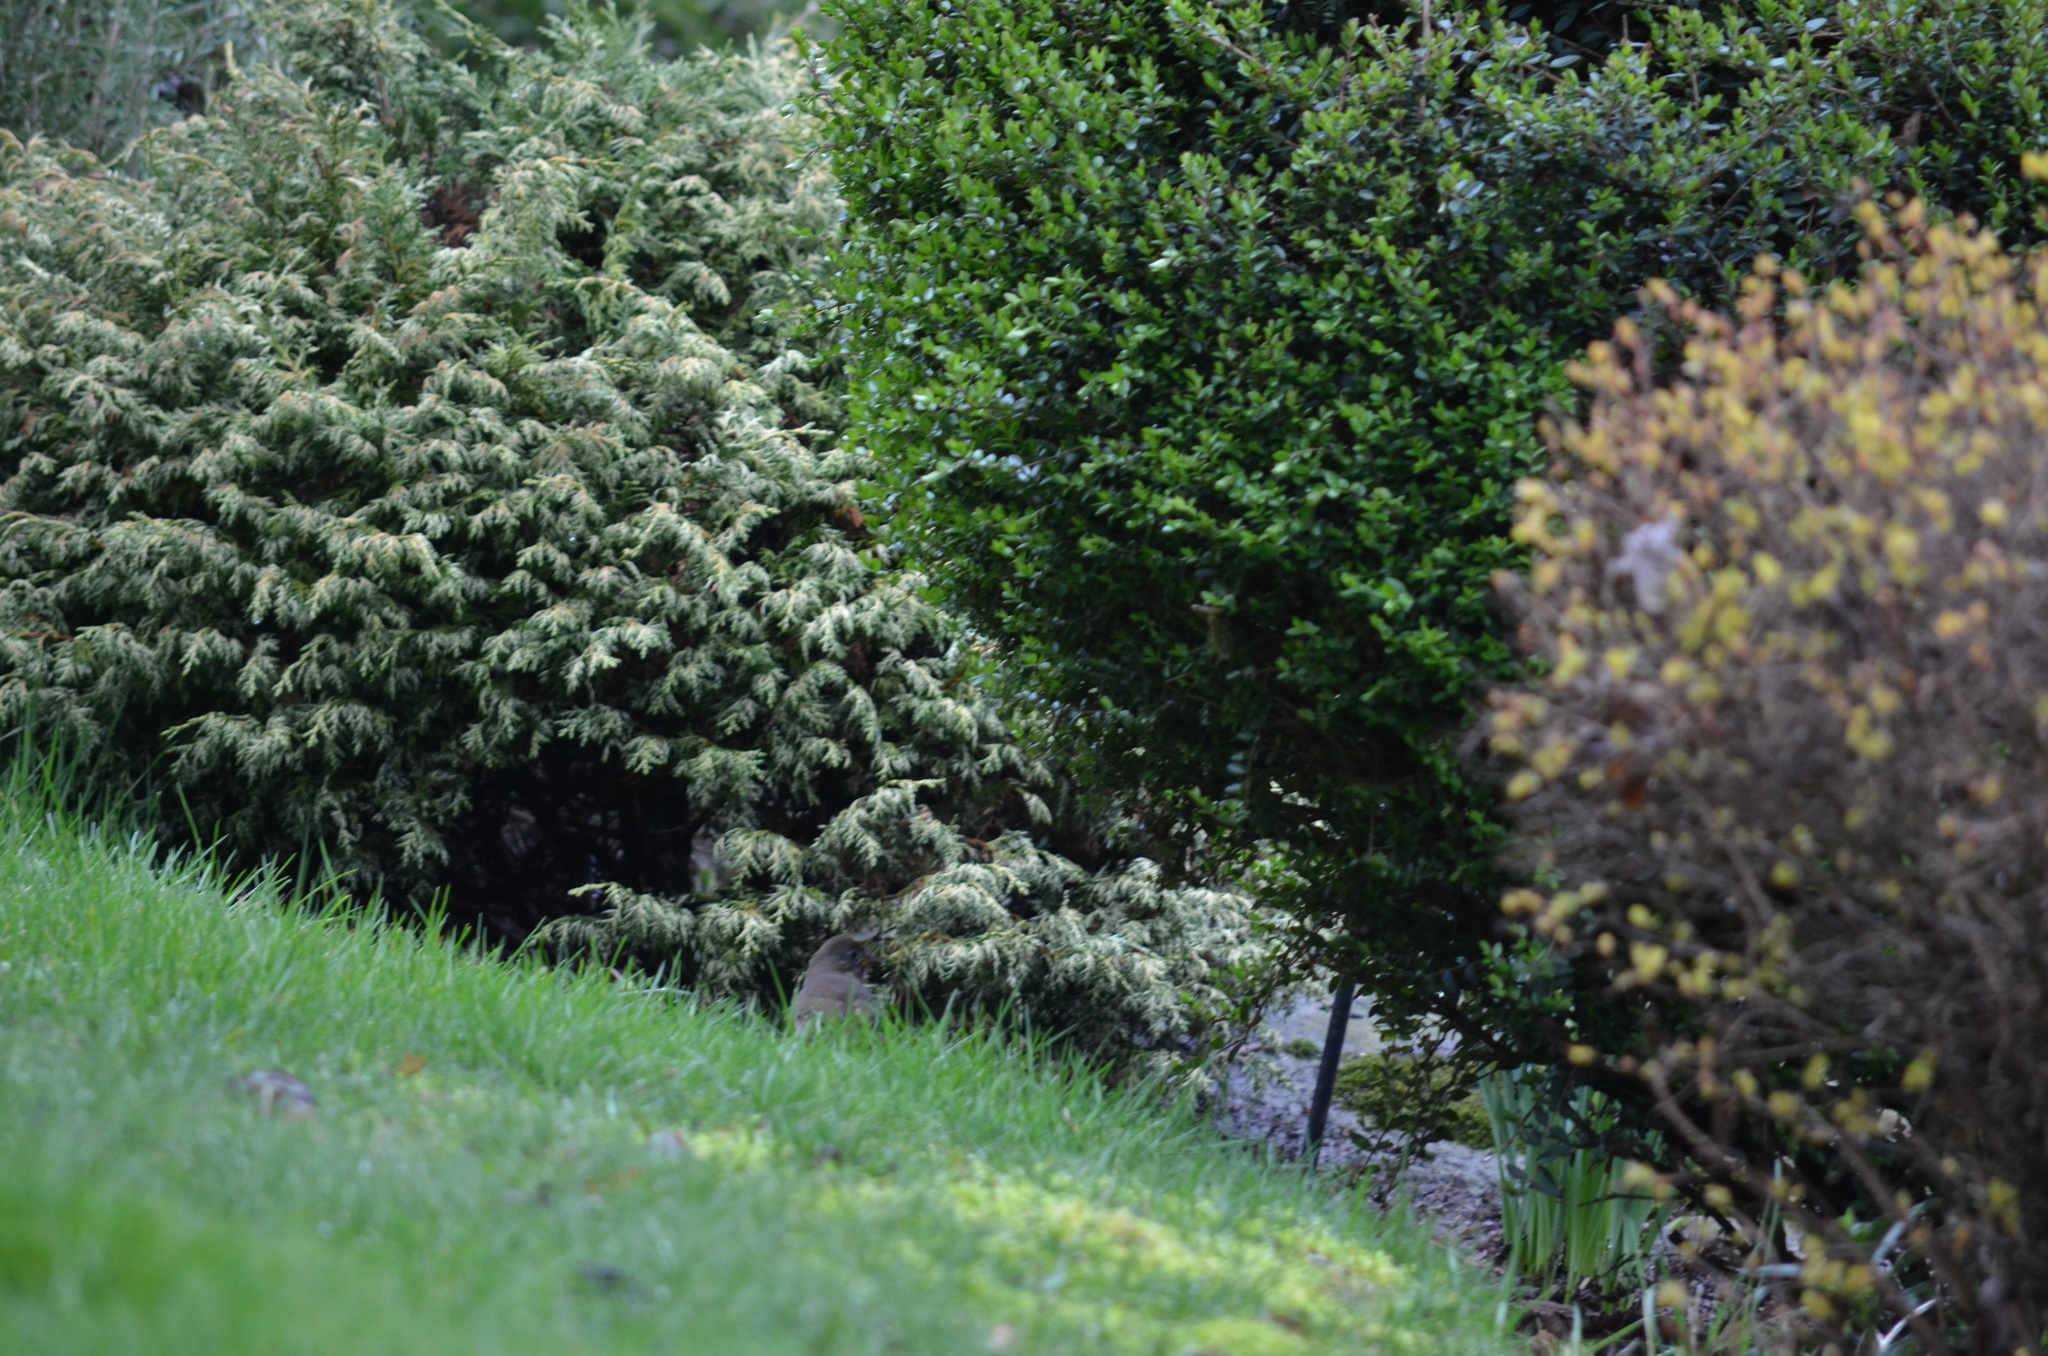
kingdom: Animalia
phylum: Chordata
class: Aves
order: Passeriformes
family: Passerellidae
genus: Passerella
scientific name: Passerella iliaca
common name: Fox sparrow
